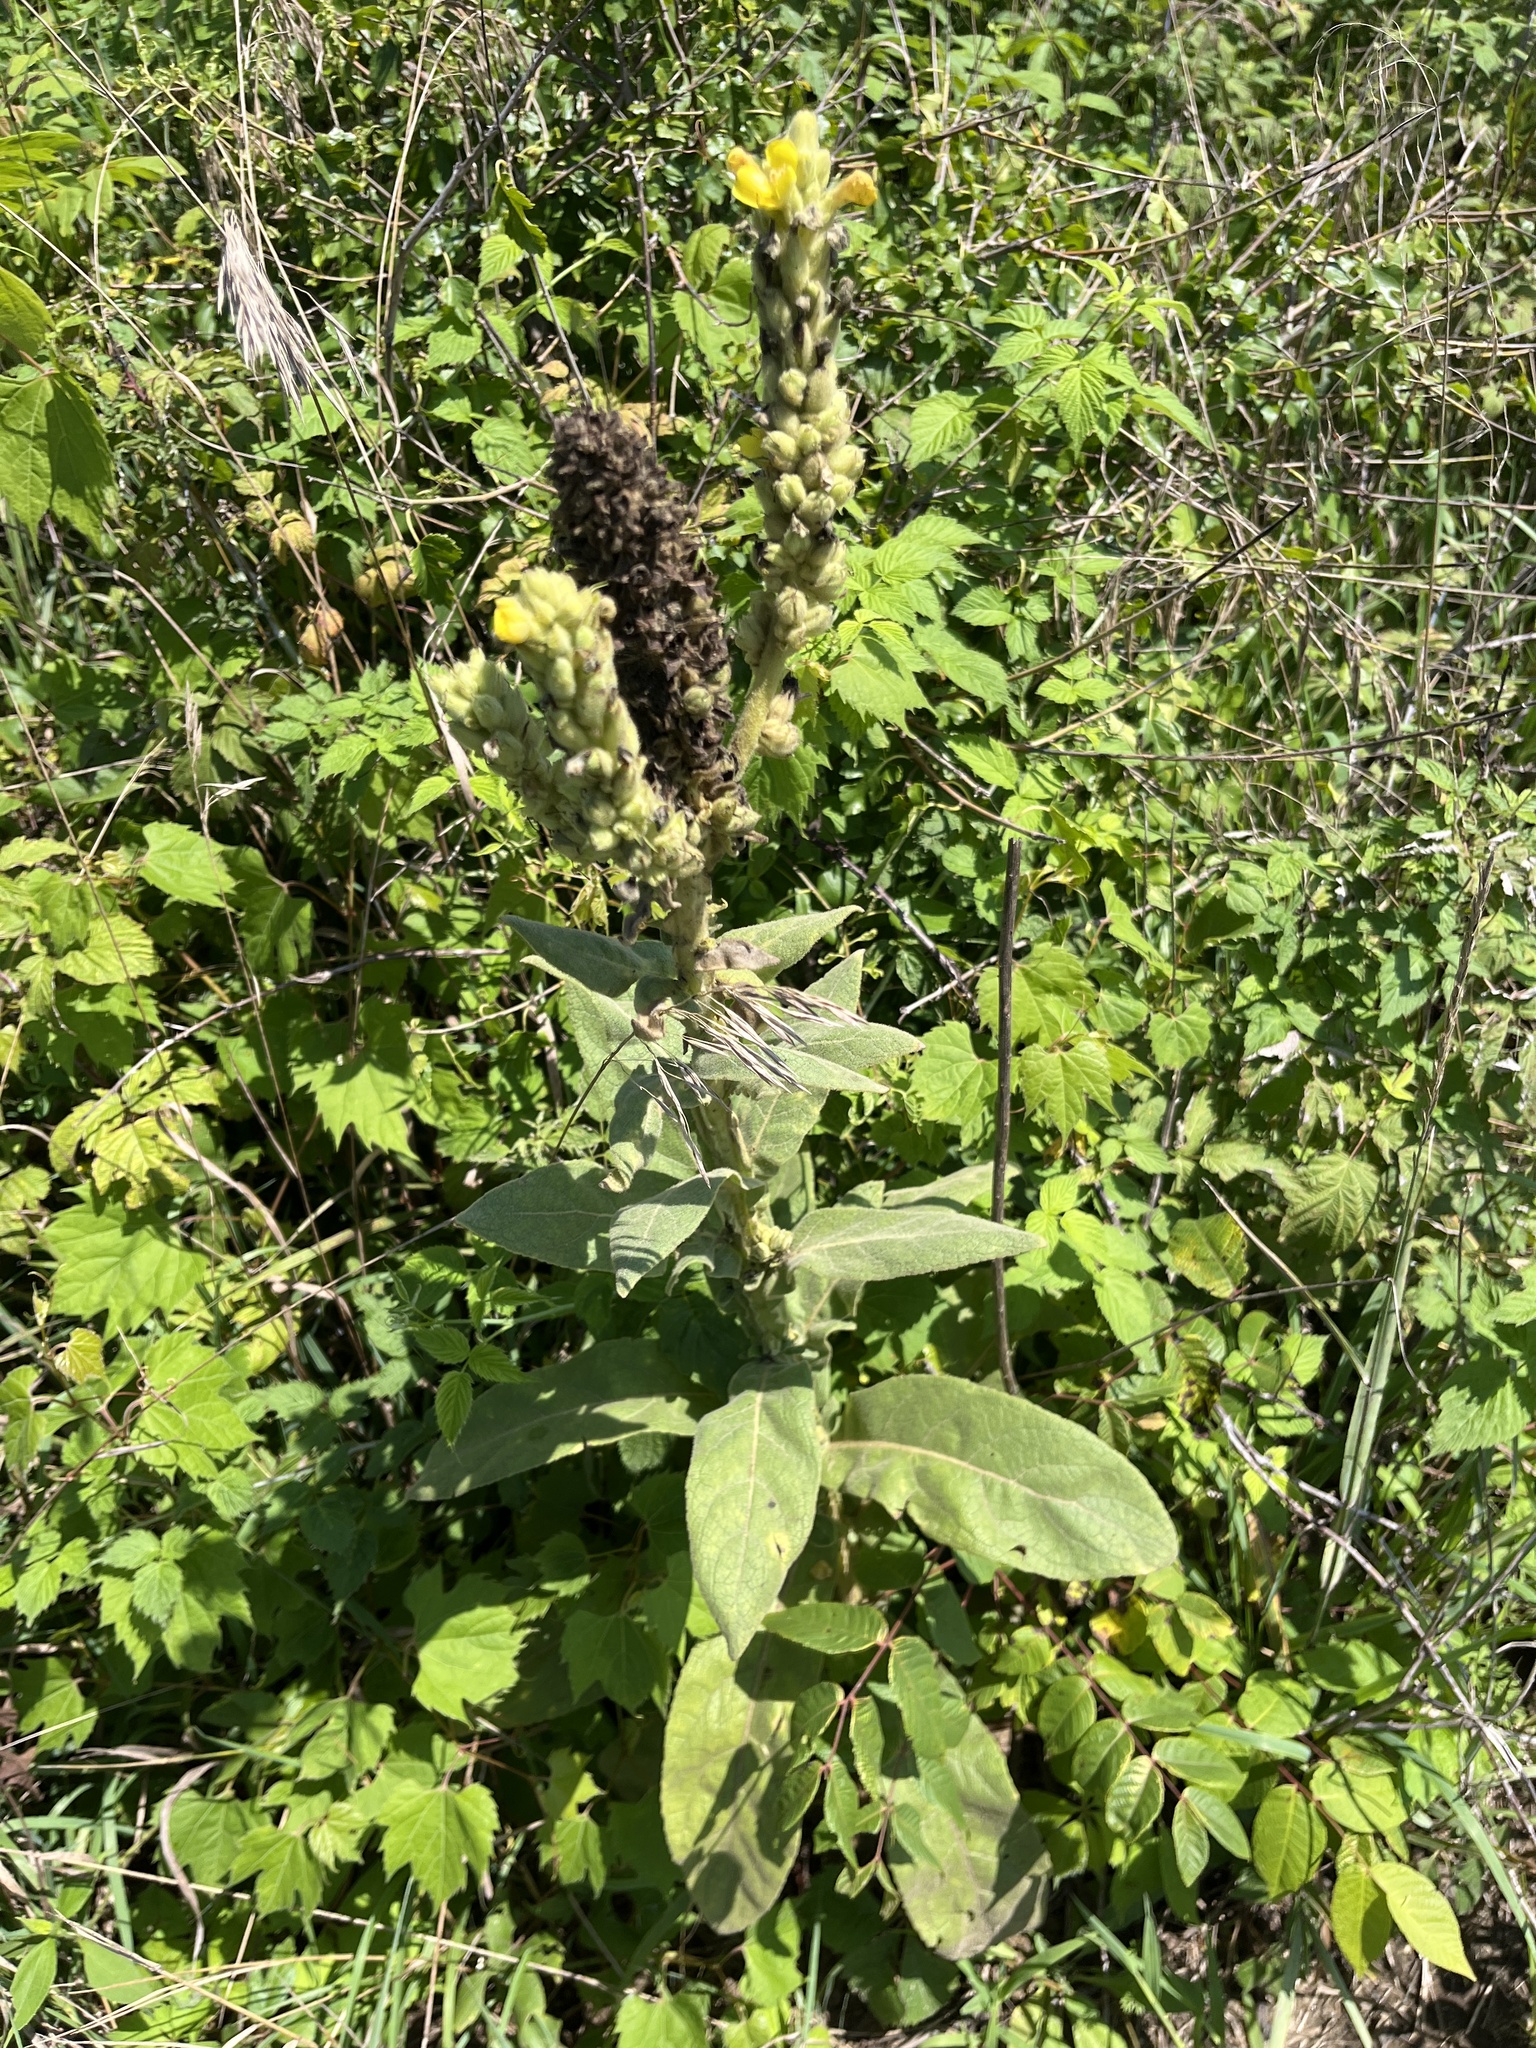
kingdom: Plantae
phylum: Tracheophyta
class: Magnoliopsida
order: Lamiales
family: Scrophulariaceae
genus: Verbascum
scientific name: Verbascum thapsus
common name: Common mullein
